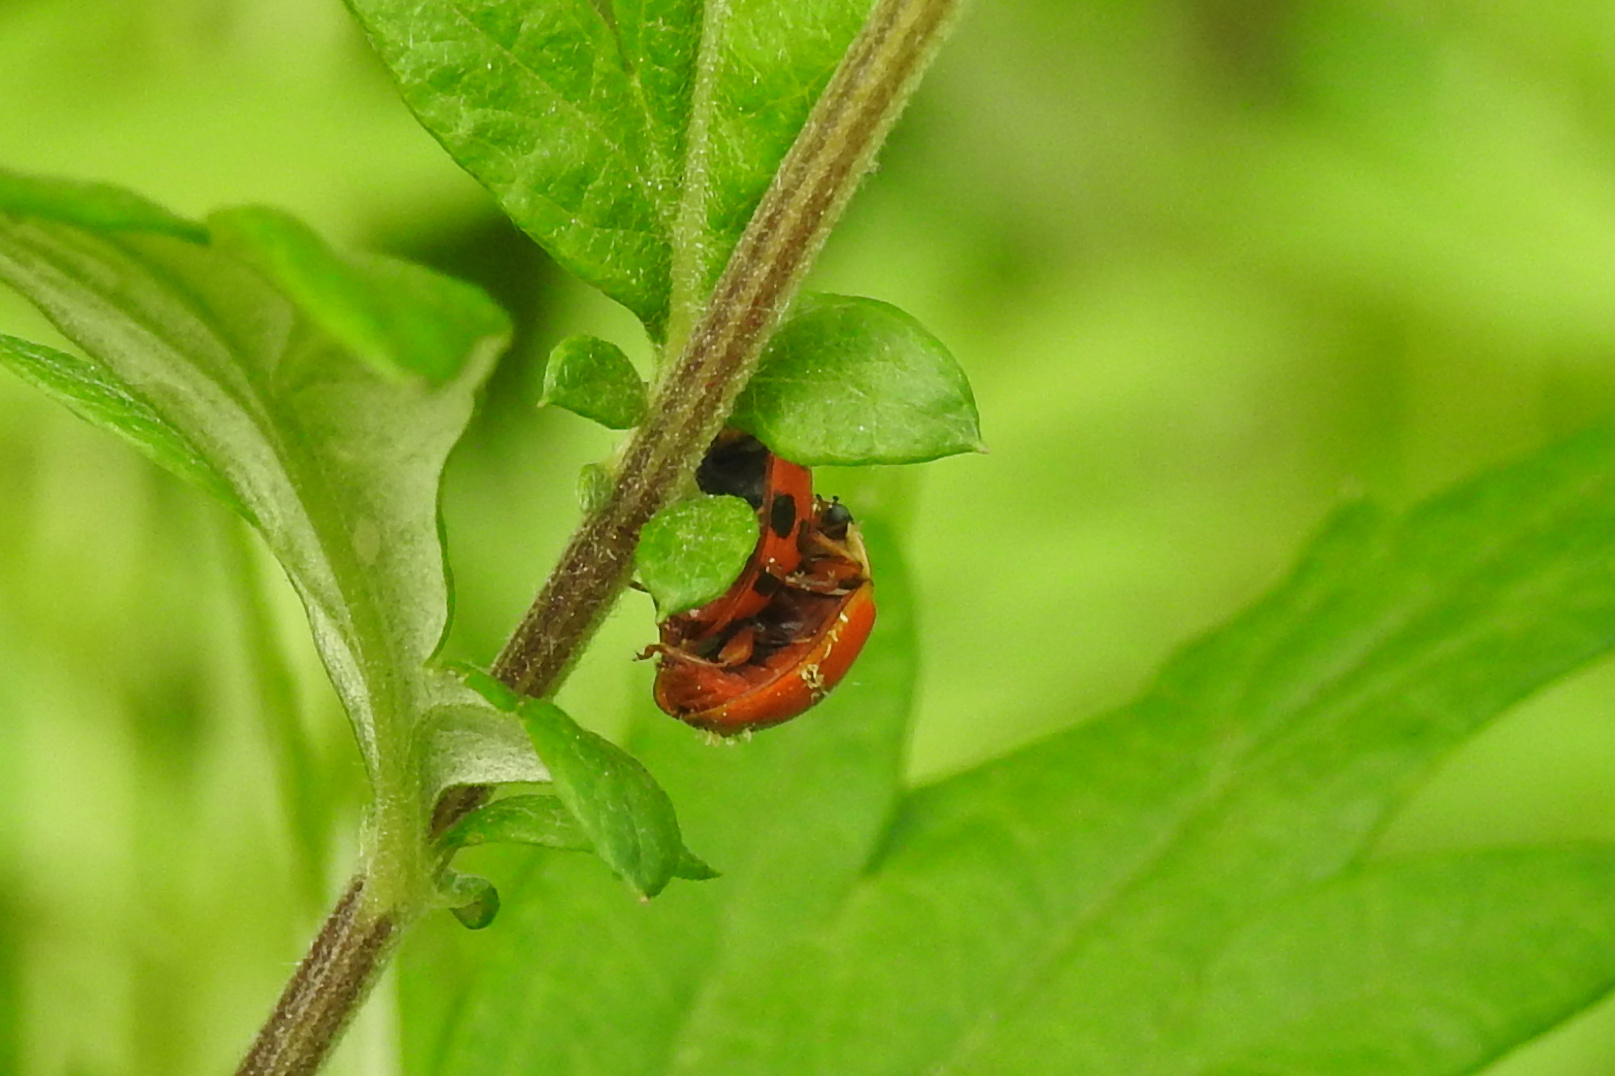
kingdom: Animalia
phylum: Arthropoda
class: Insecta
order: Coleoptera
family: Coccinellidae
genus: Harmonia
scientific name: Harmonia axyridis
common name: Harlequin ladybird
